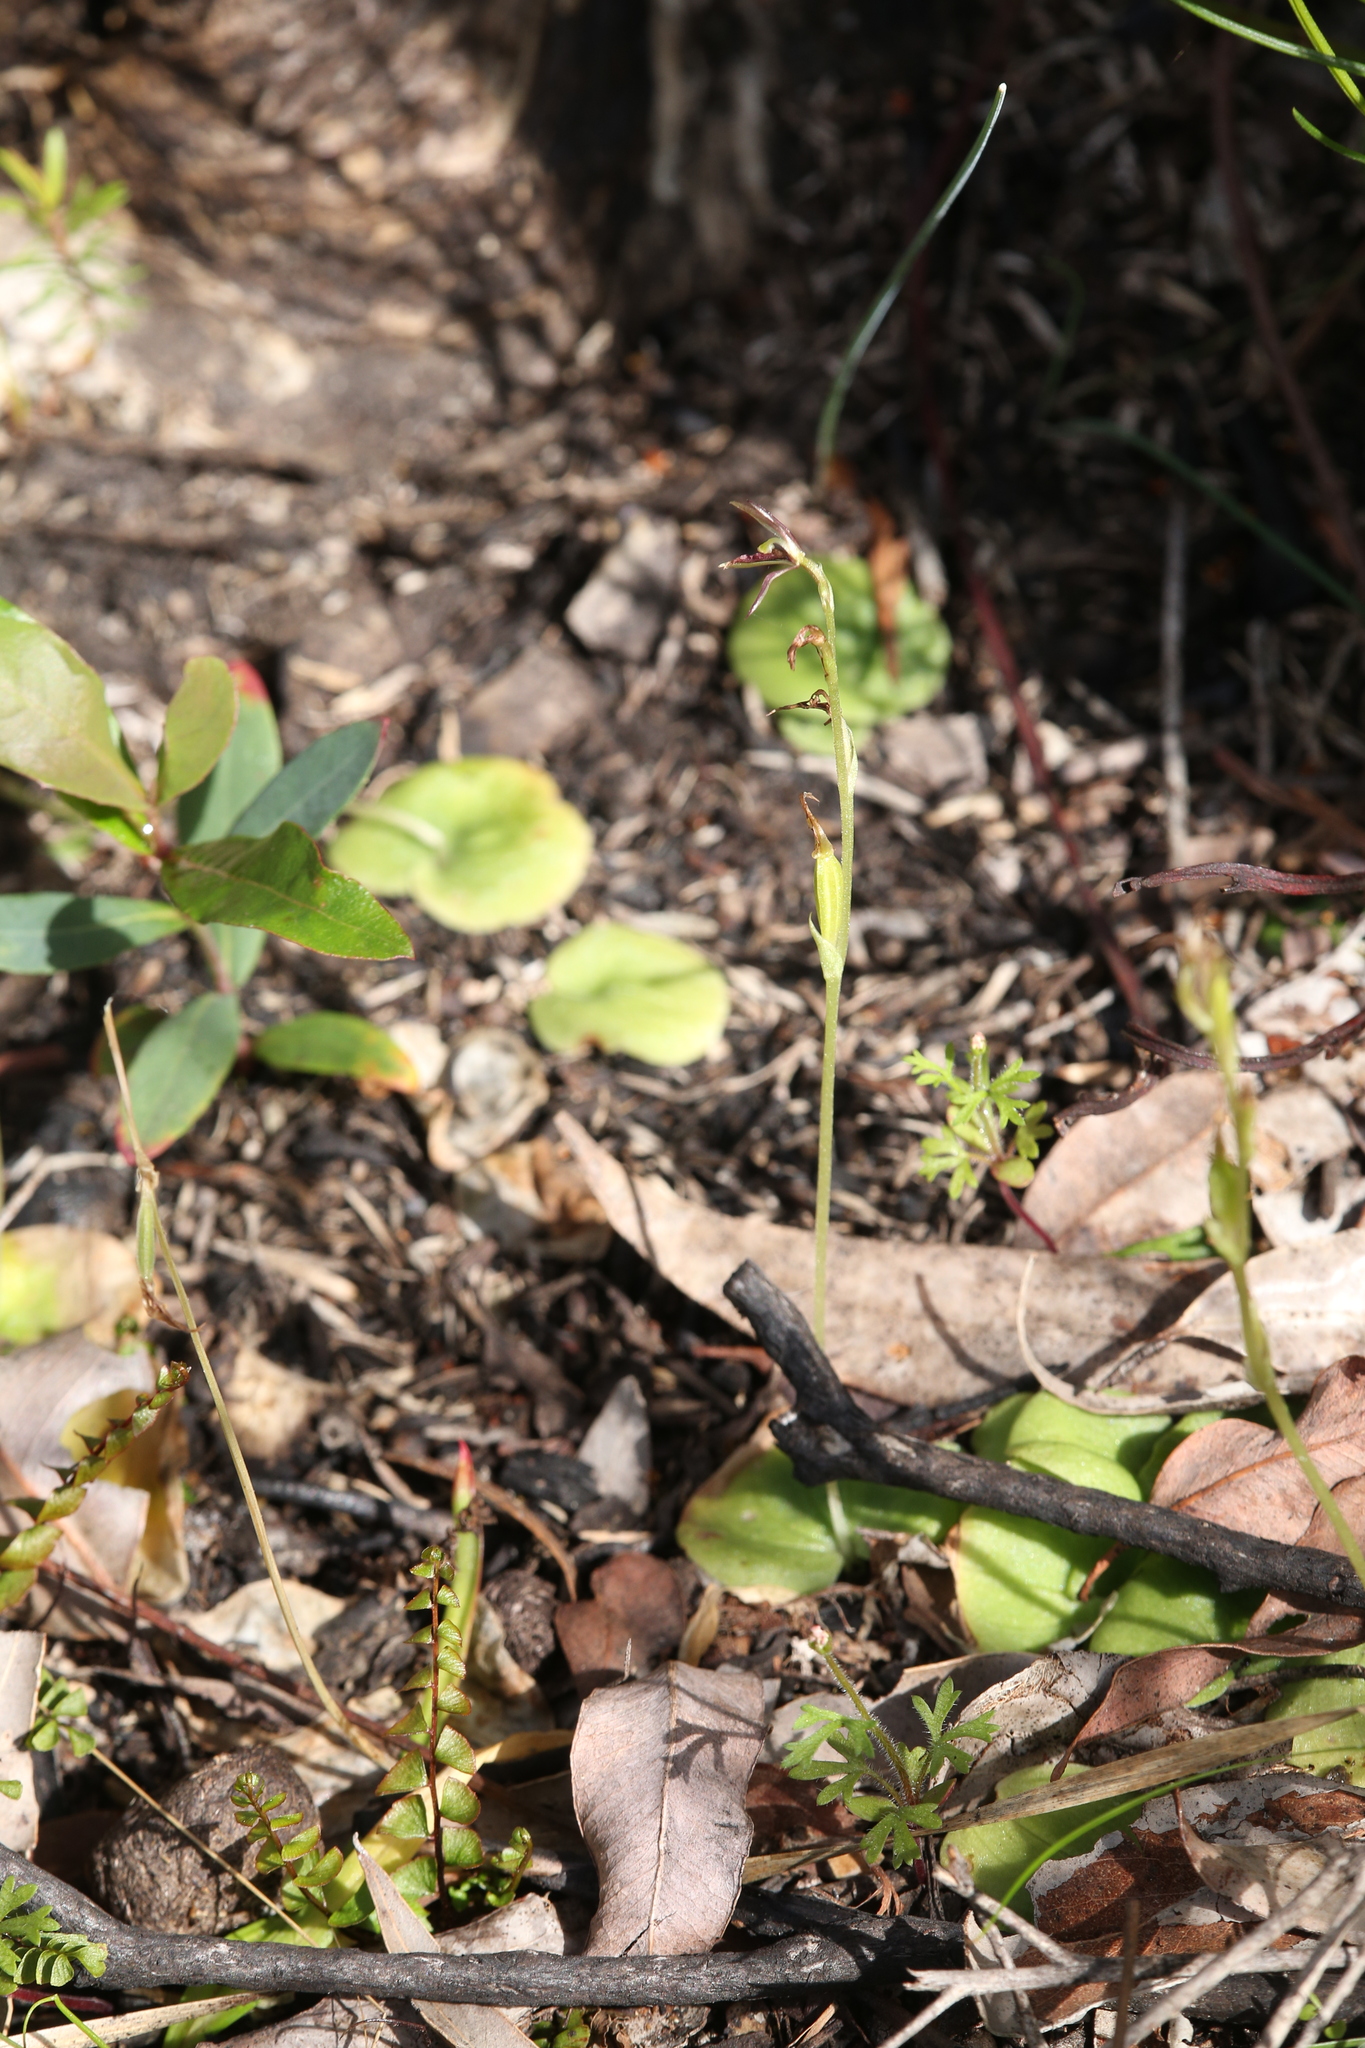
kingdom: Plantae
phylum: Tracheophyta
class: Liliopsida
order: Asparagales
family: Orchidaceae
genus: Cyrtostylis
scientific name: Cyrtostylis huegelii
